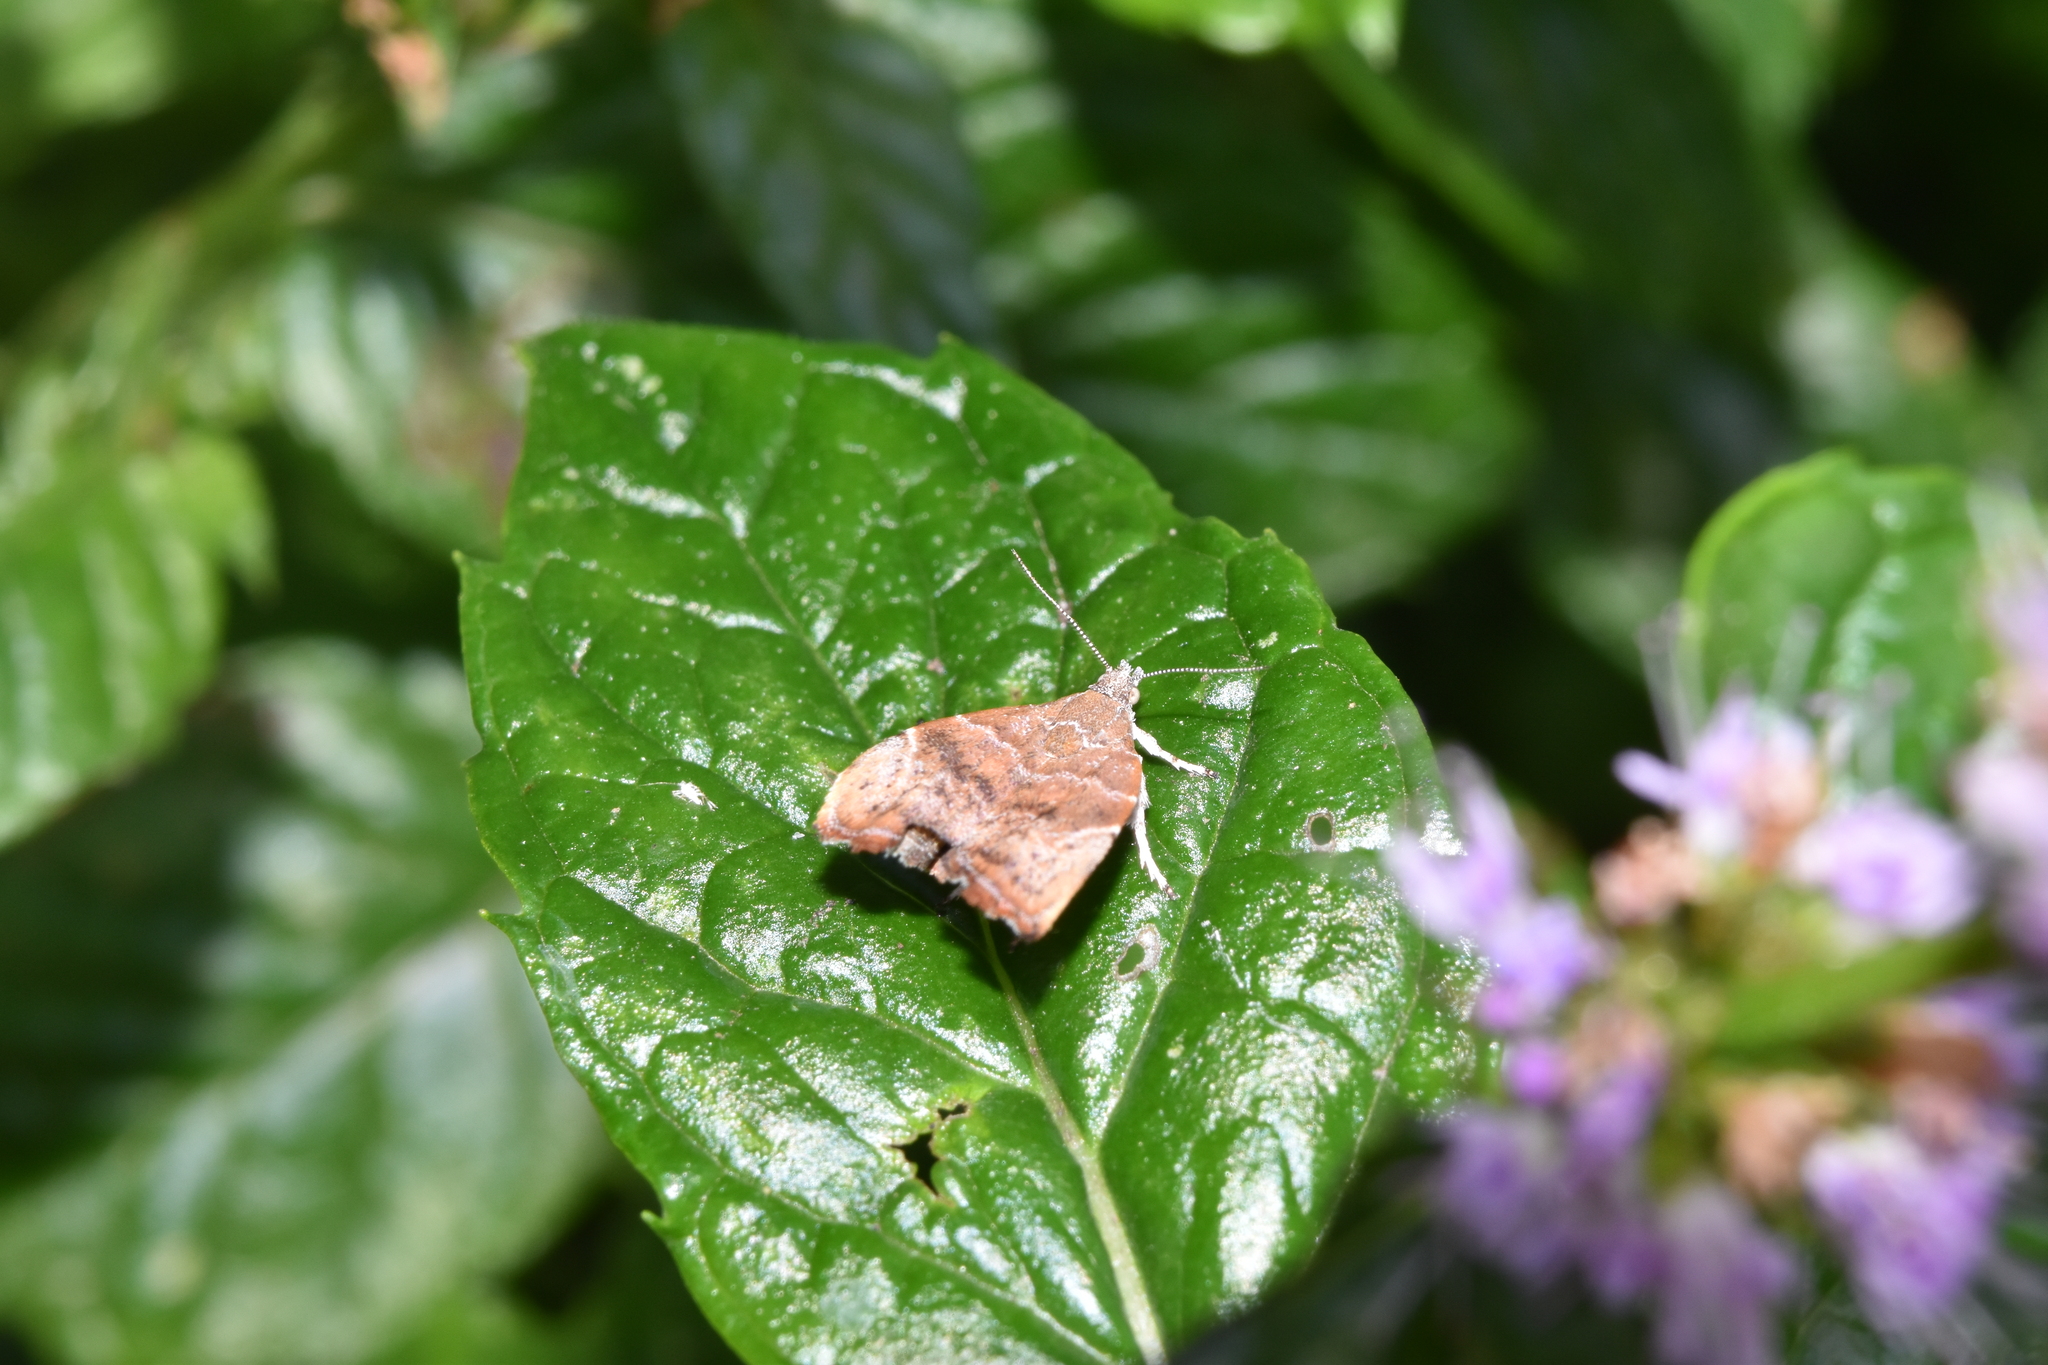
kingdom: Animalia
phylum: Arthropoda
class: Insecta
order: Lepidoptera
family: Choreutidae
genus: Anthophila
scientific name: Anthophila nemorana
